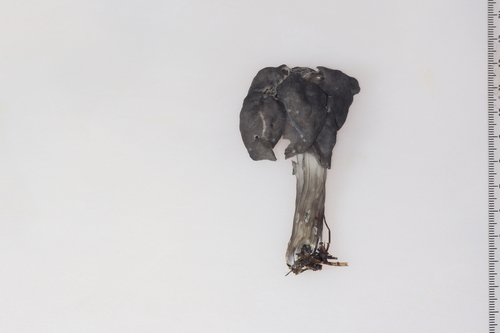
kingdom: Fungi
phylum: Ascomycota
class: Pezizomycetes
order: Pezizales
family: Helvellaceae
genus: Helvella
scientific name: Helvella lacunosa
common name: Elfin saddle
